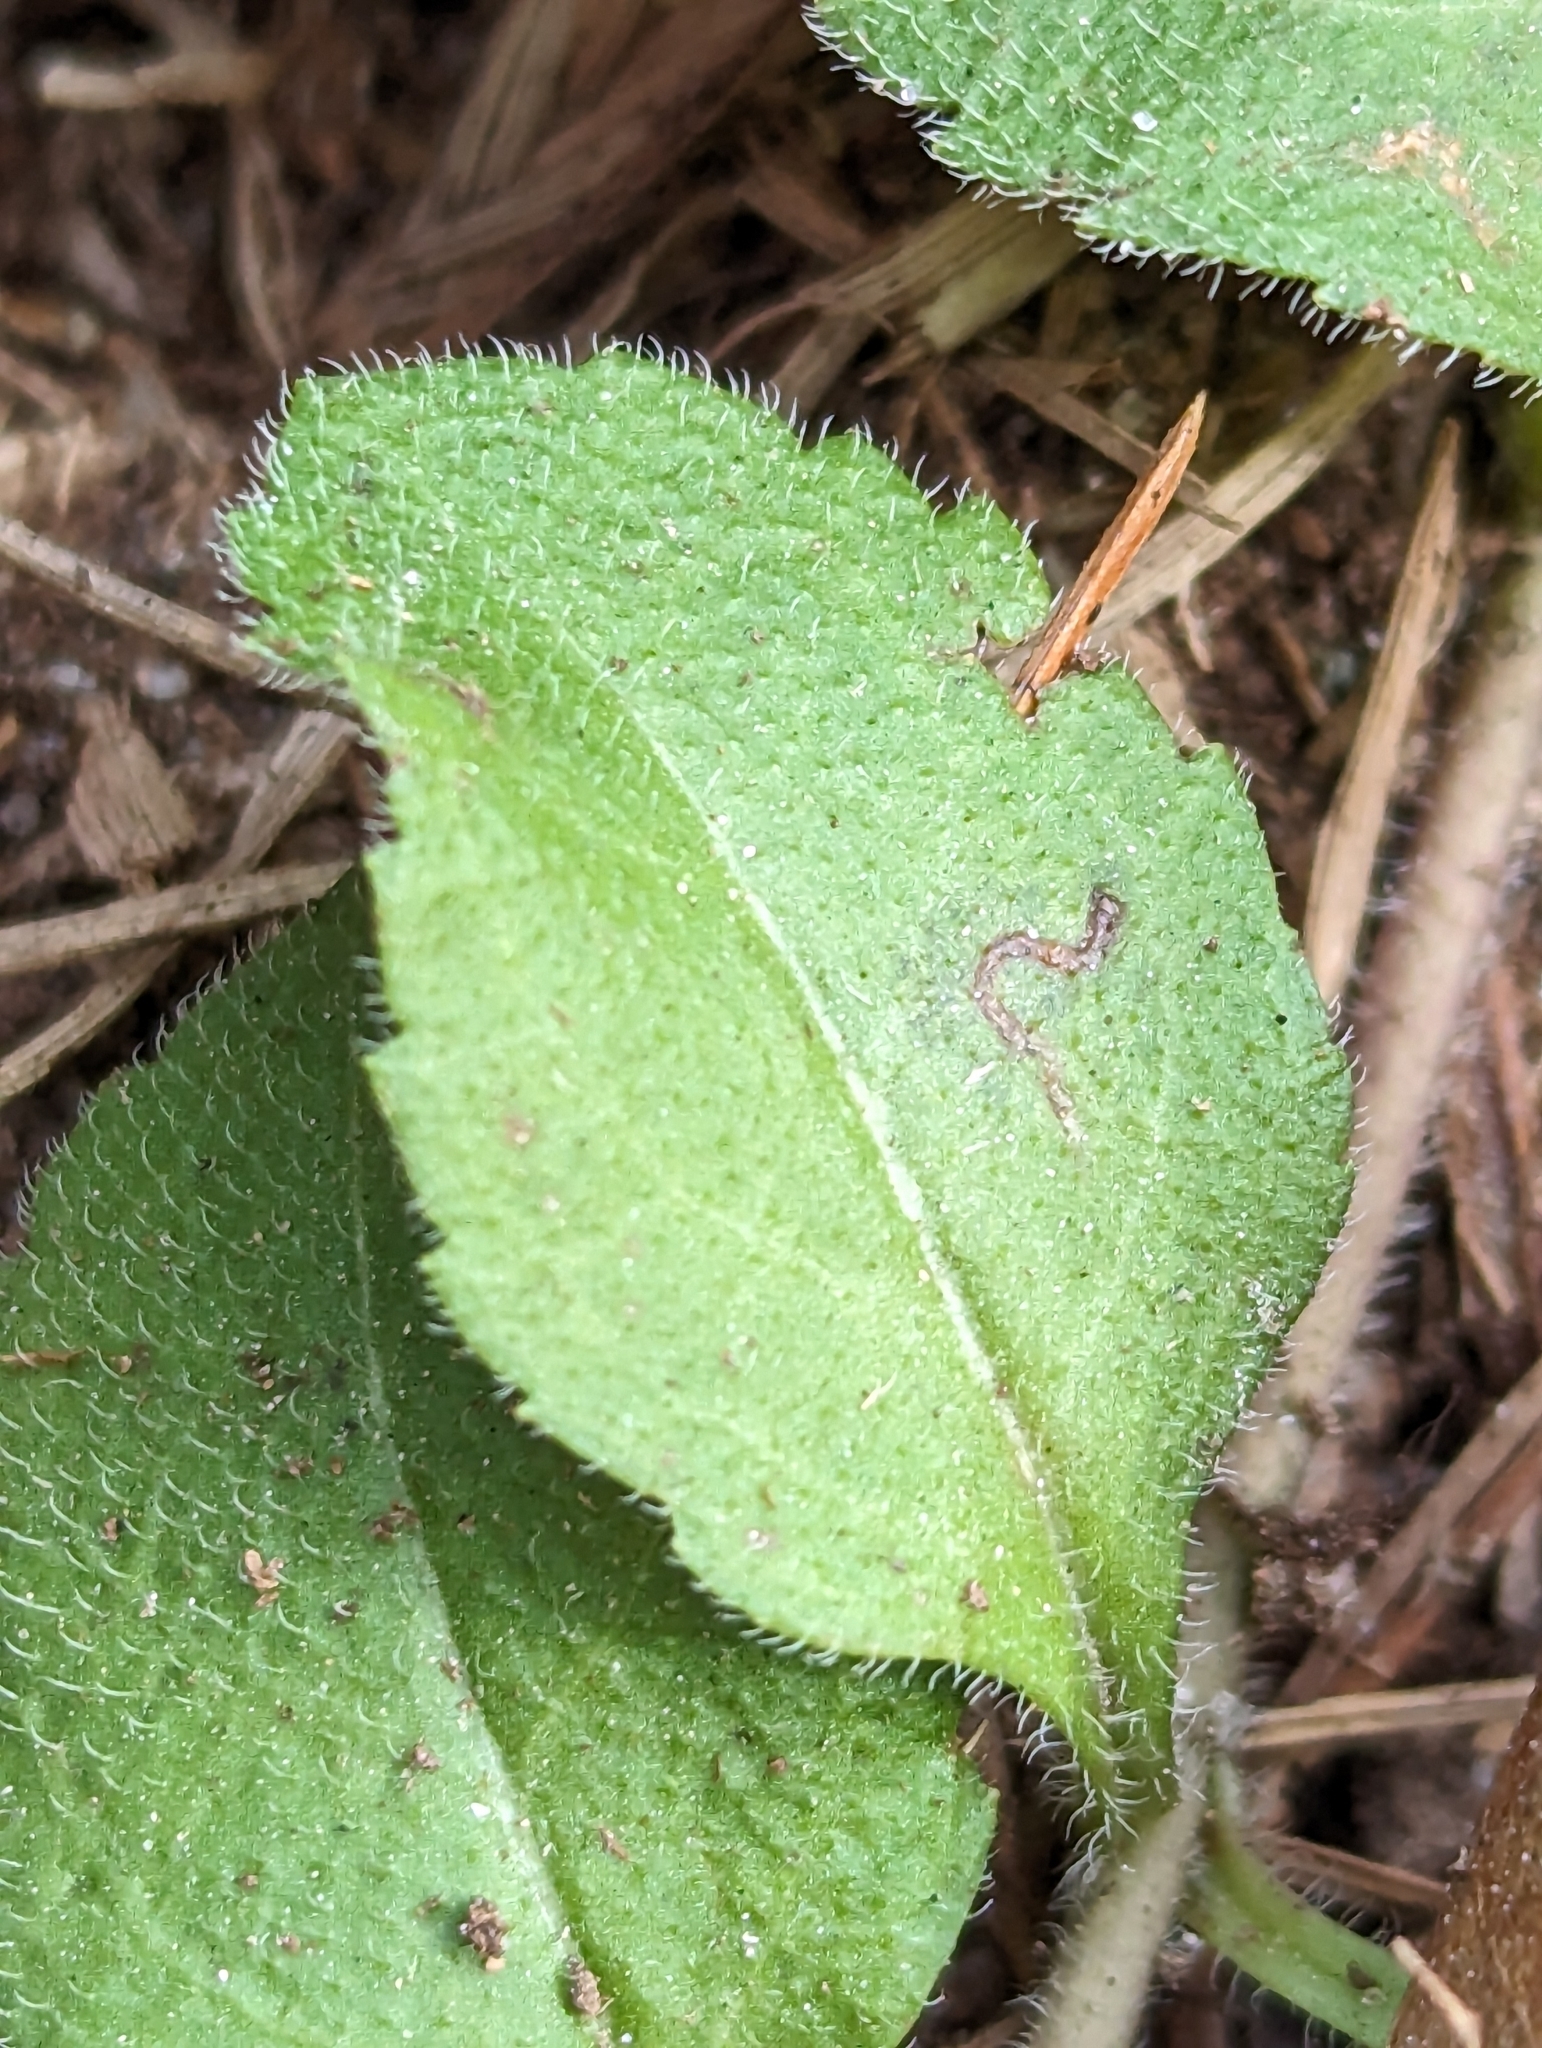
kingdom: Plantae
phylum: Tracheophyta
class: Magnoliopsida
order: Lamiales
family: Plantaginaceae
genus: Veronica
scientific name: Veronica officinalis
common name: Common speedwell
